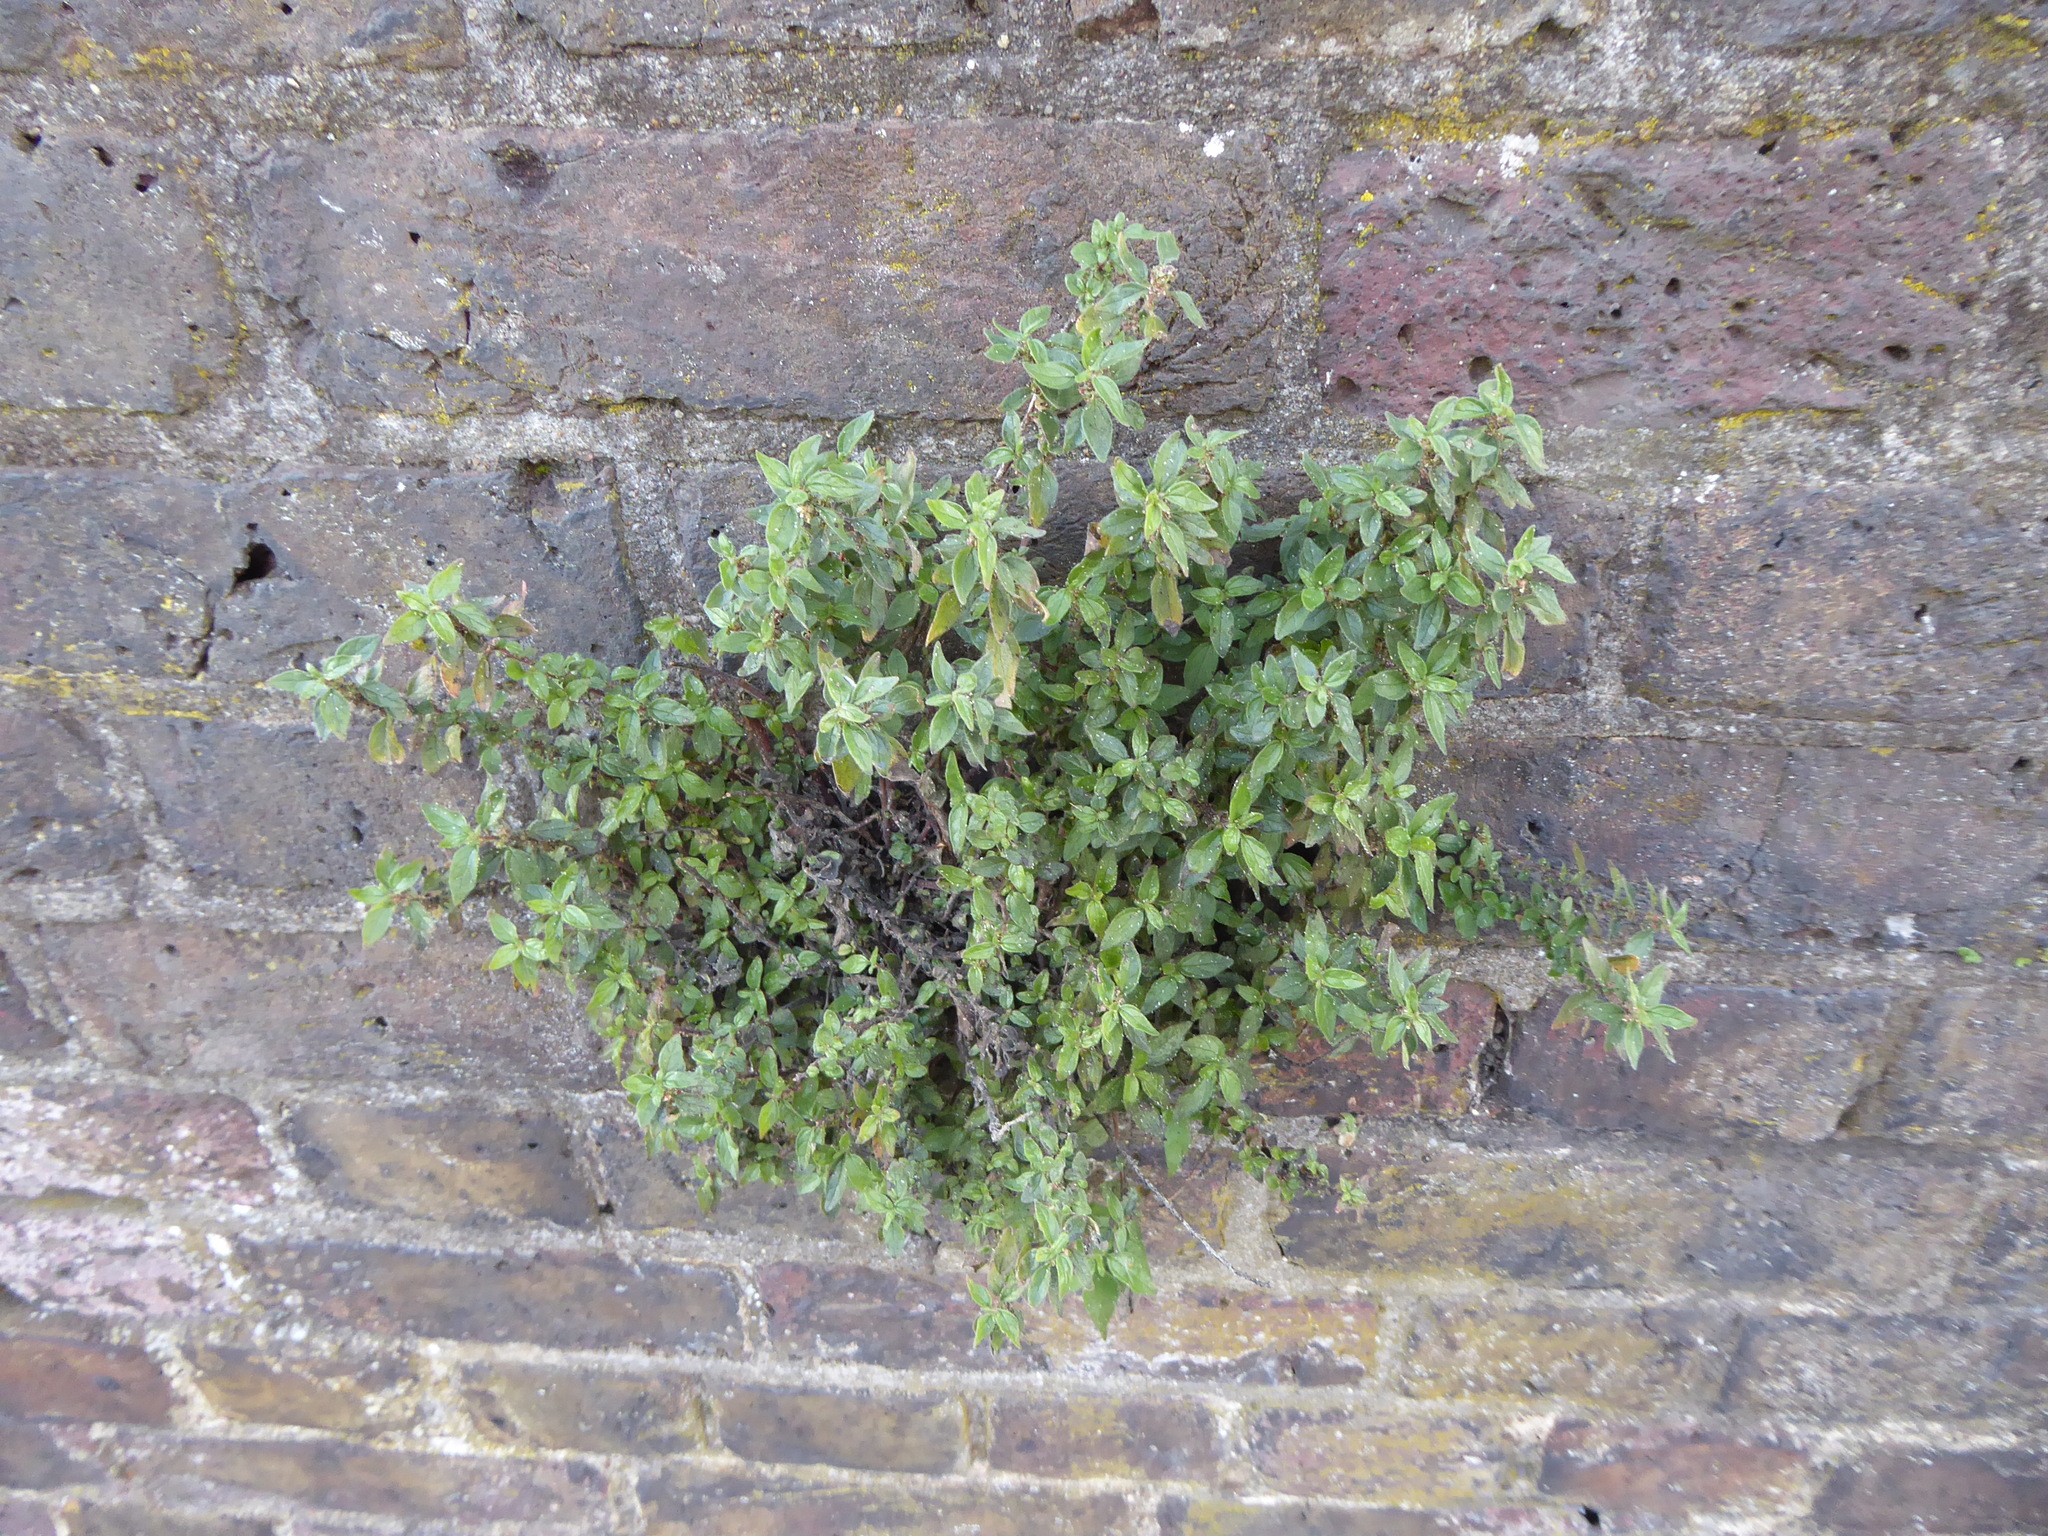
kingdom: Plantae
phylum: Tracheophyta
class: Magnoliopsida
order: Rosales
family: Urticaceae
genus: Parietaria
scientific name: Parietaria judaica
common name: Pellitory-of-the-wall
